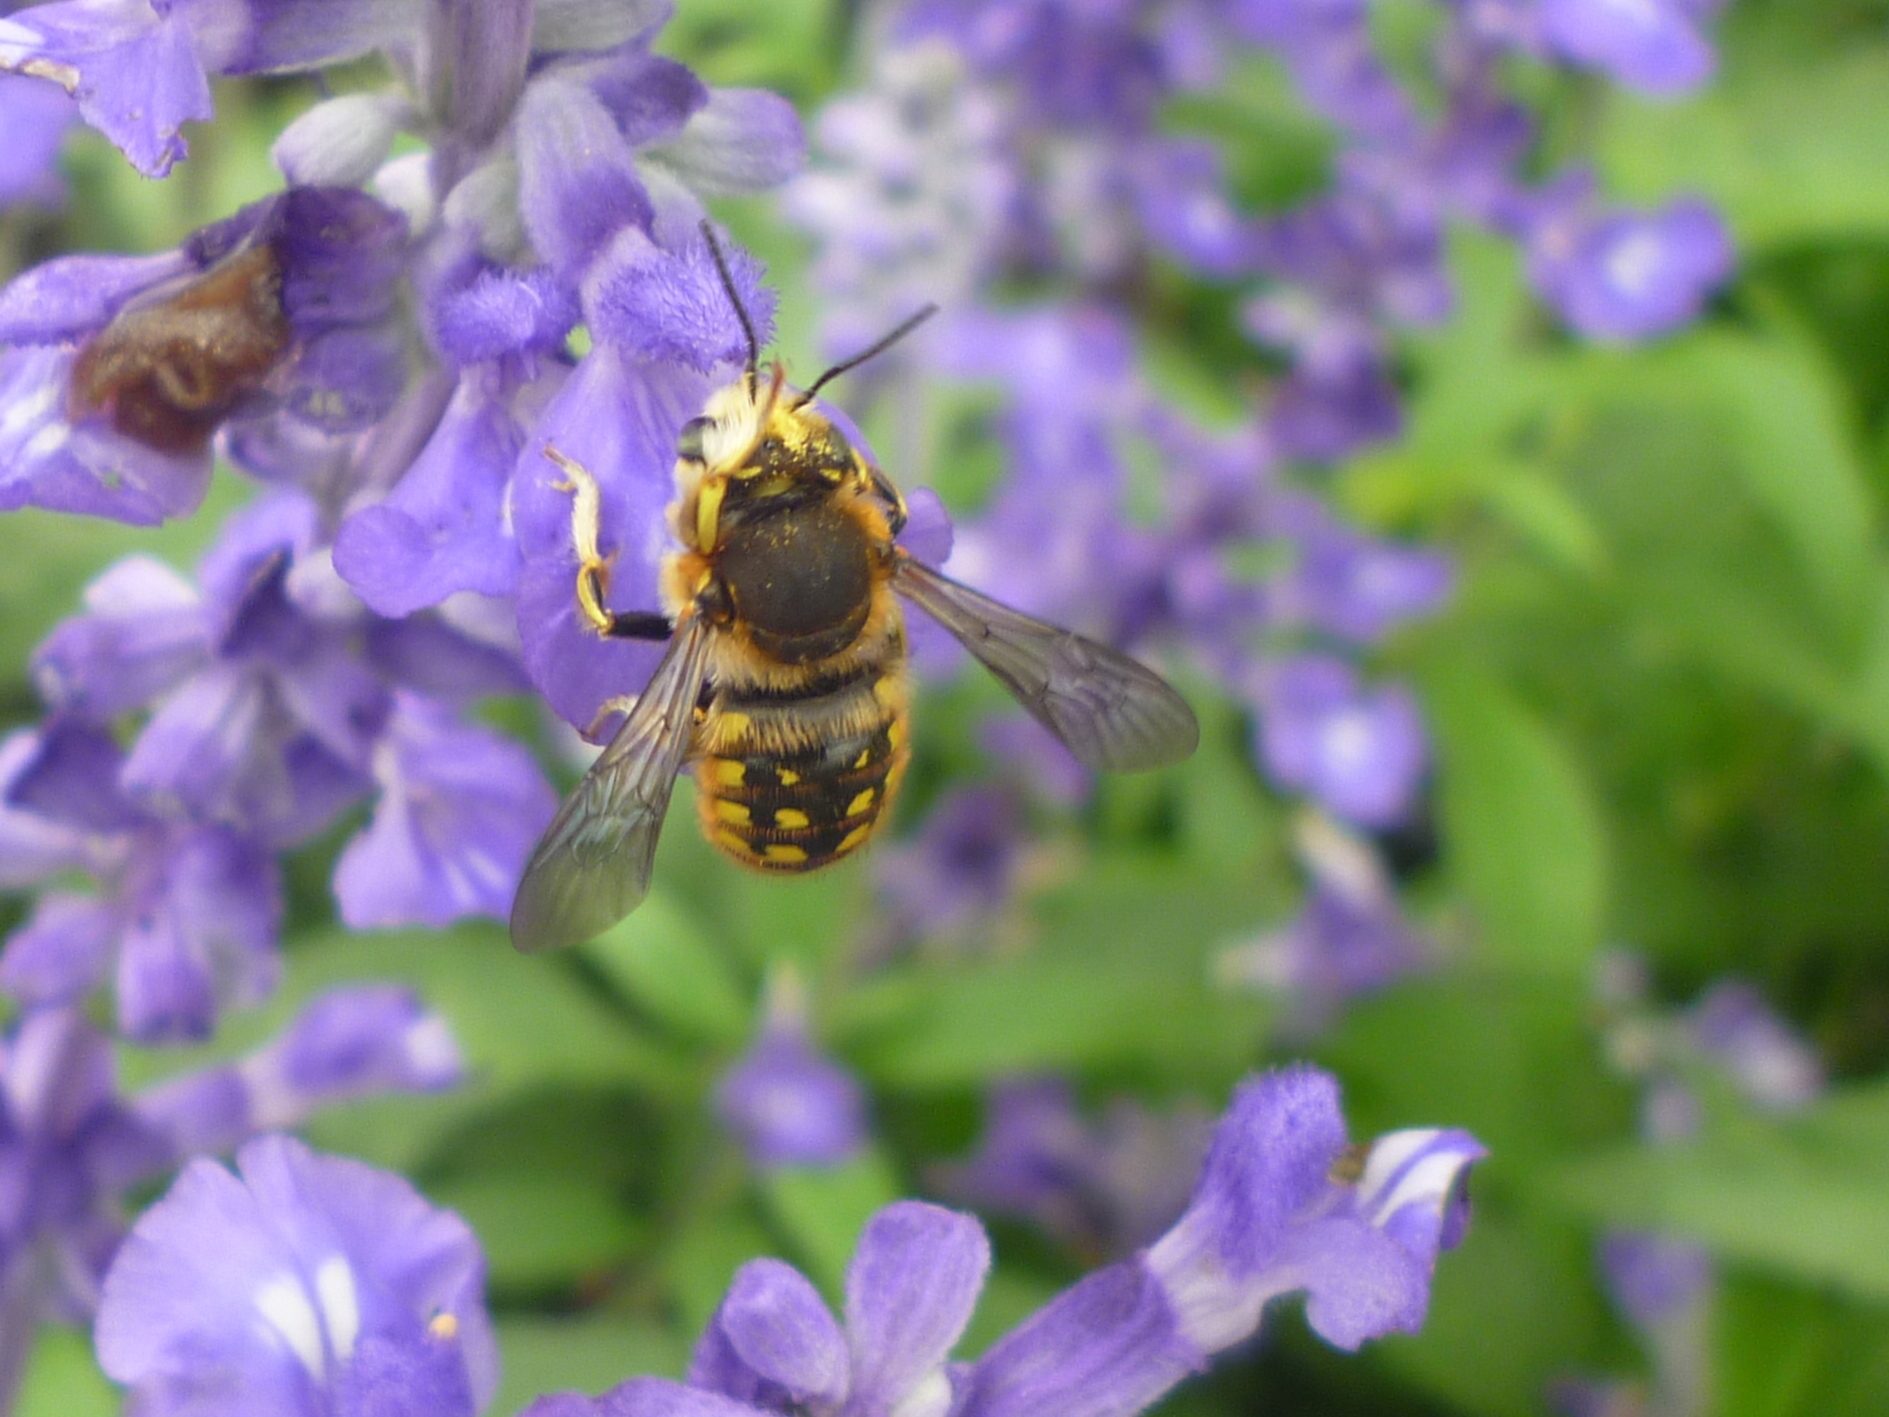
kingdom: Animalia
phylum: Arthropoda
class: Insecta
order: Hymenoptera
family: Megachilidae
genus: Anthidium
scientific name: Anthidium manicatum
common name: Wool carder bee
